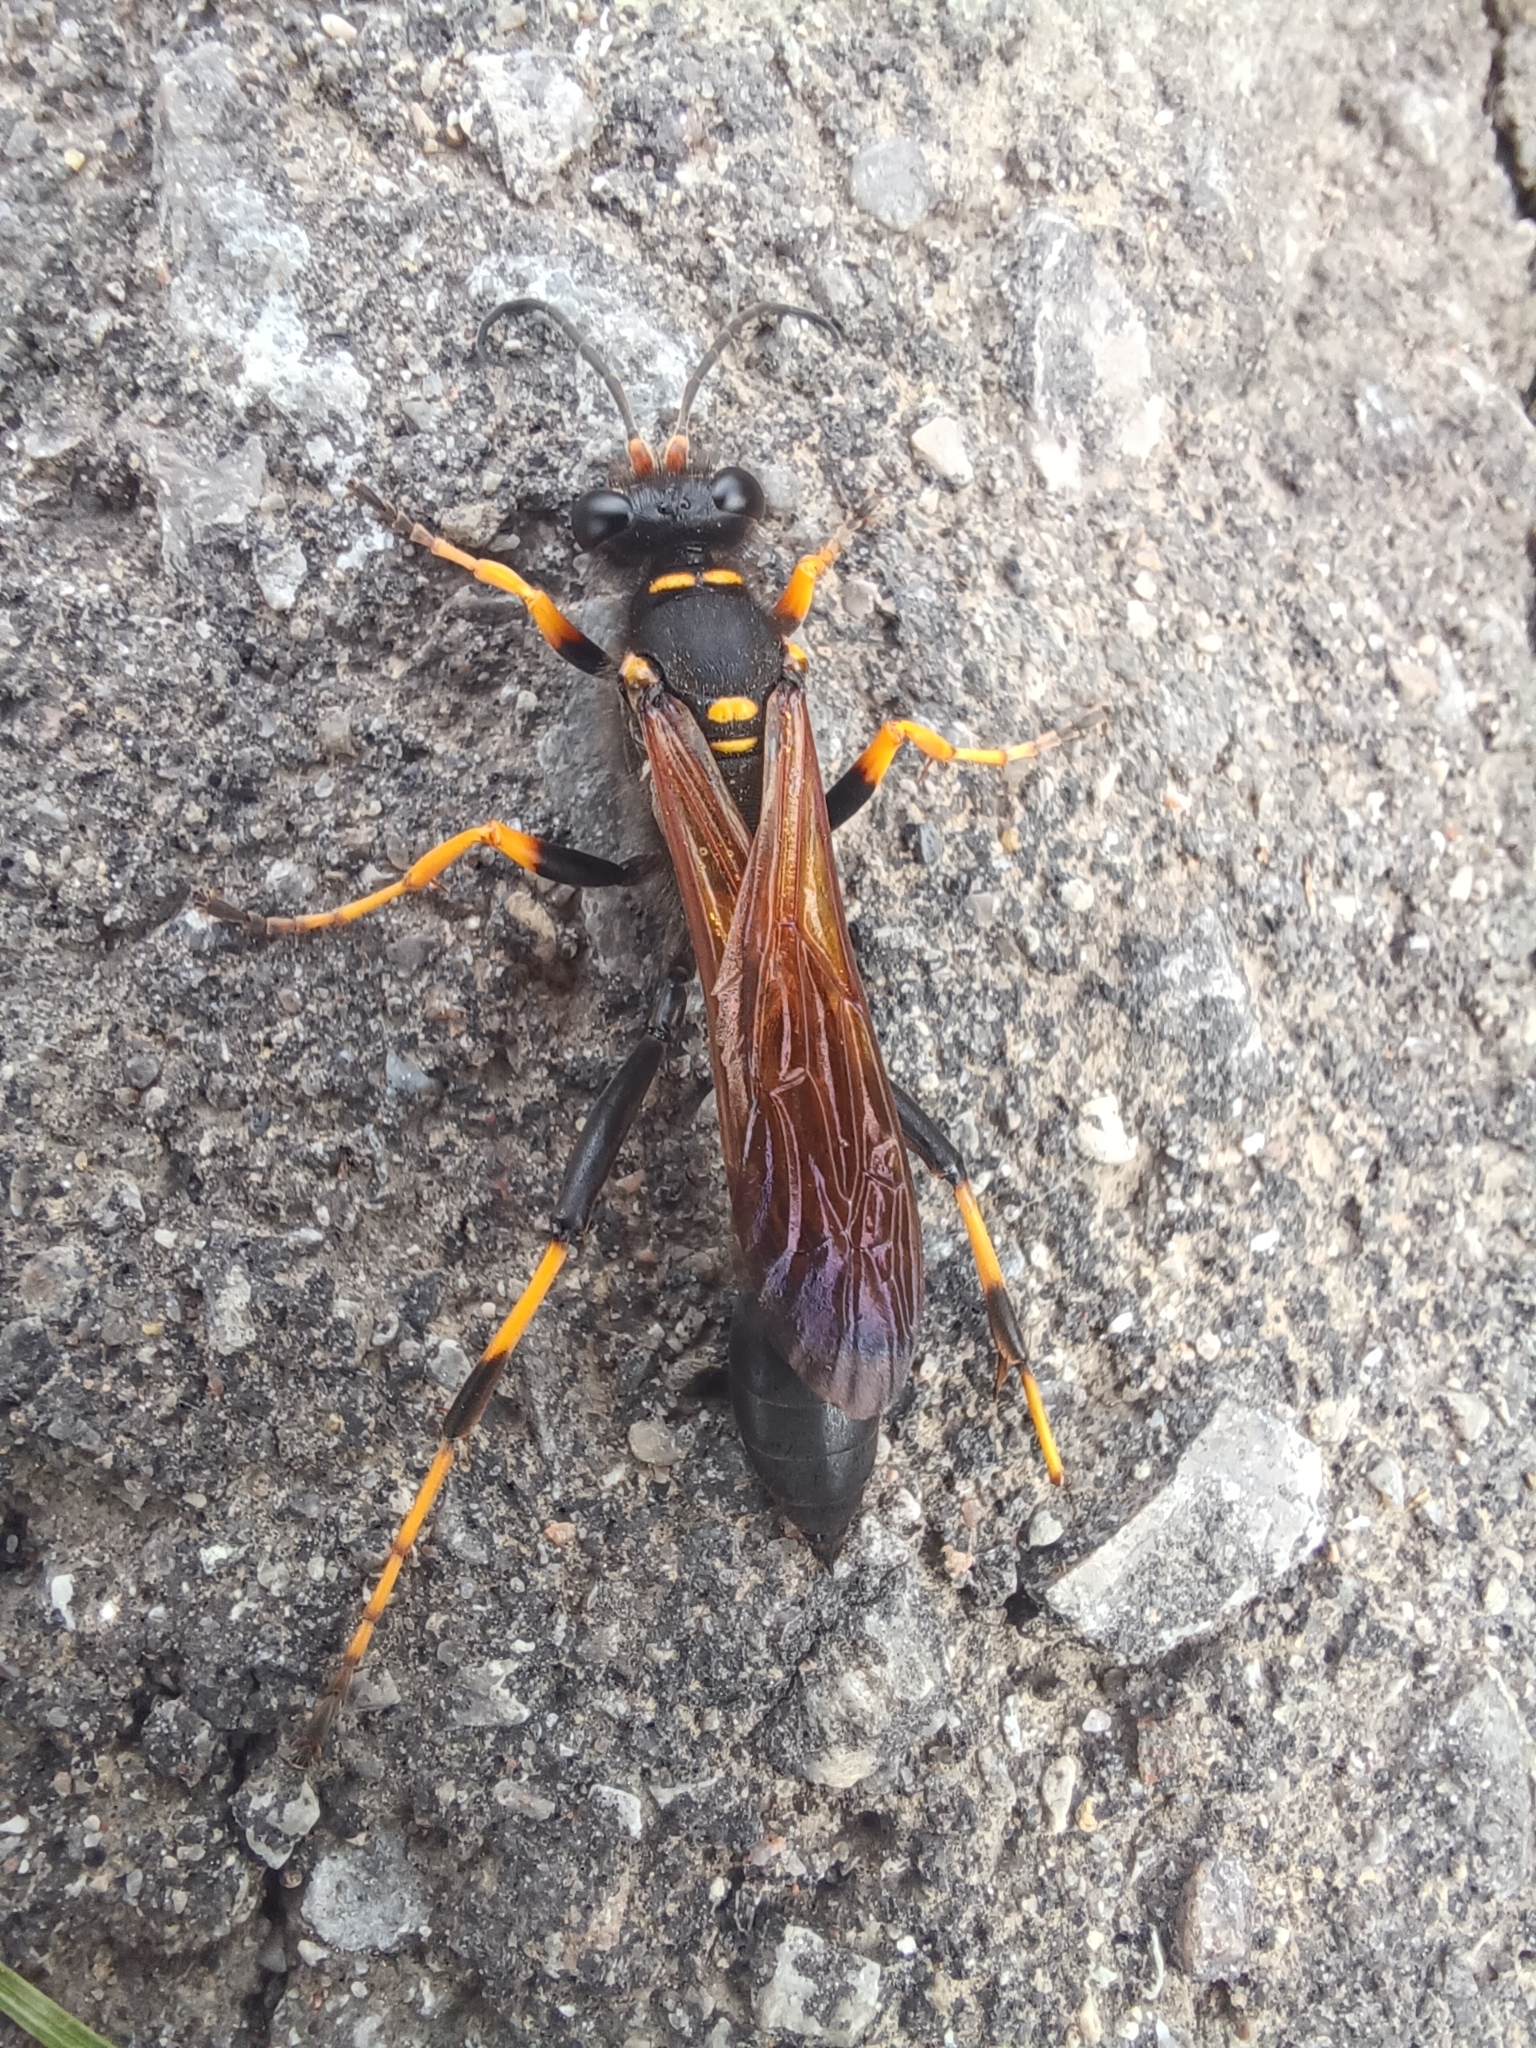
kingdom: Animalia
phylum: Arthropoda
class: Insecta
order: Hymenoptera
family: Sphecidae
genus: Sceliphron
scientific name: Sceliphron caementarium
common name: Mud dauber
